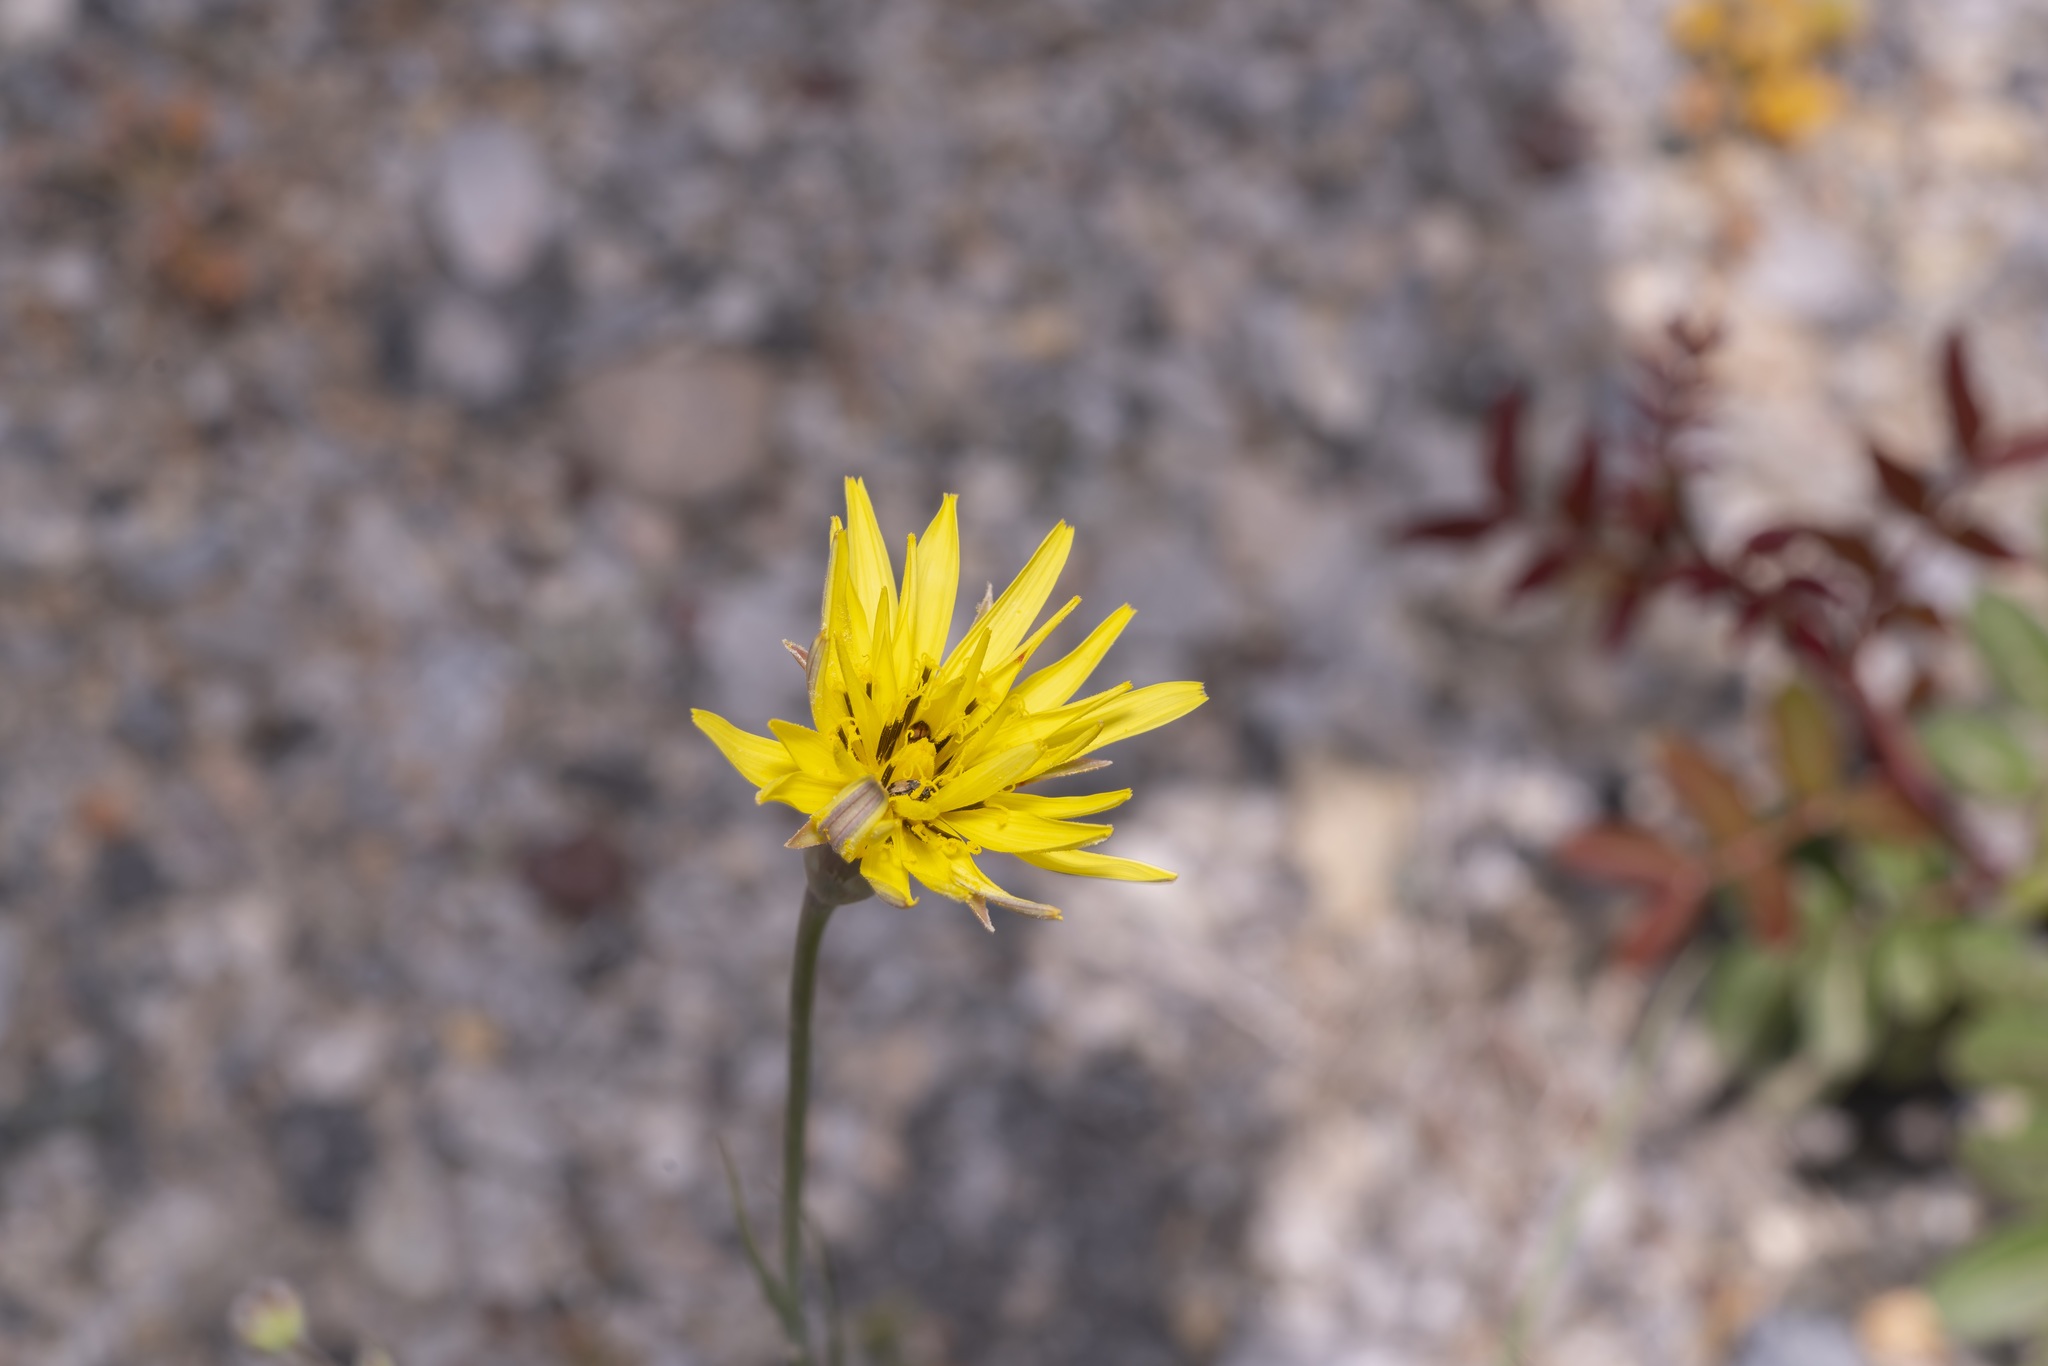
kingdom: Plantae
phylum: Tracheophyta
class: Magnoliopsida
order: Asterales
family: Asteraceae
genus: Candollea
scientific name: Candollea elata
